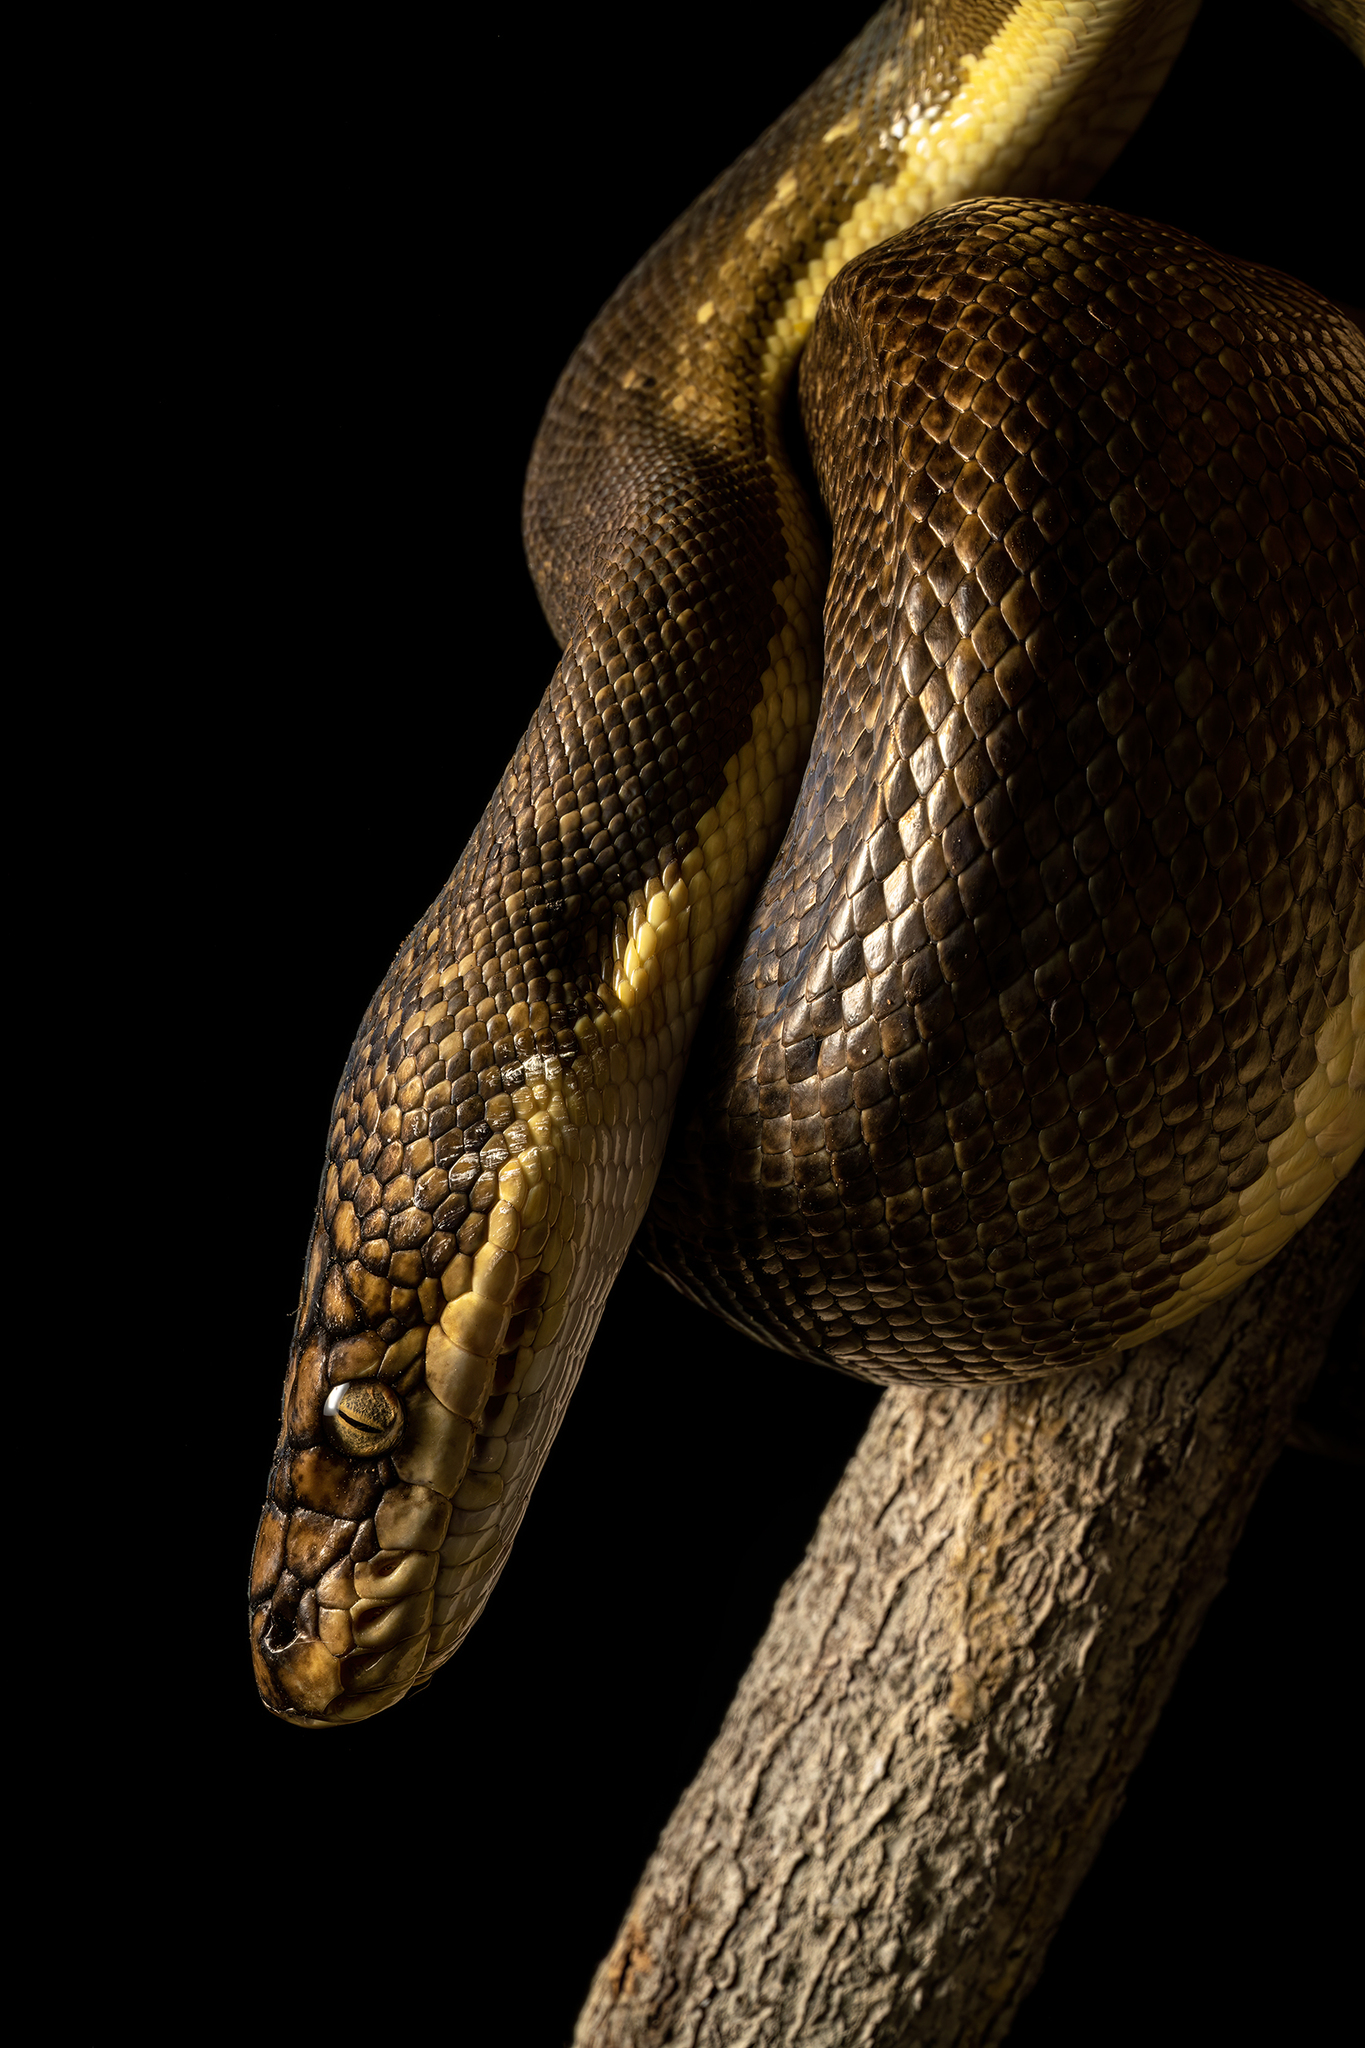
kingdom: Animalia
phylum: Chordata
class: Squamata
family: Pythonidae
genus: Malayopython
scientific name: Malayopython timoriensis
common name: Lesser sundas python
